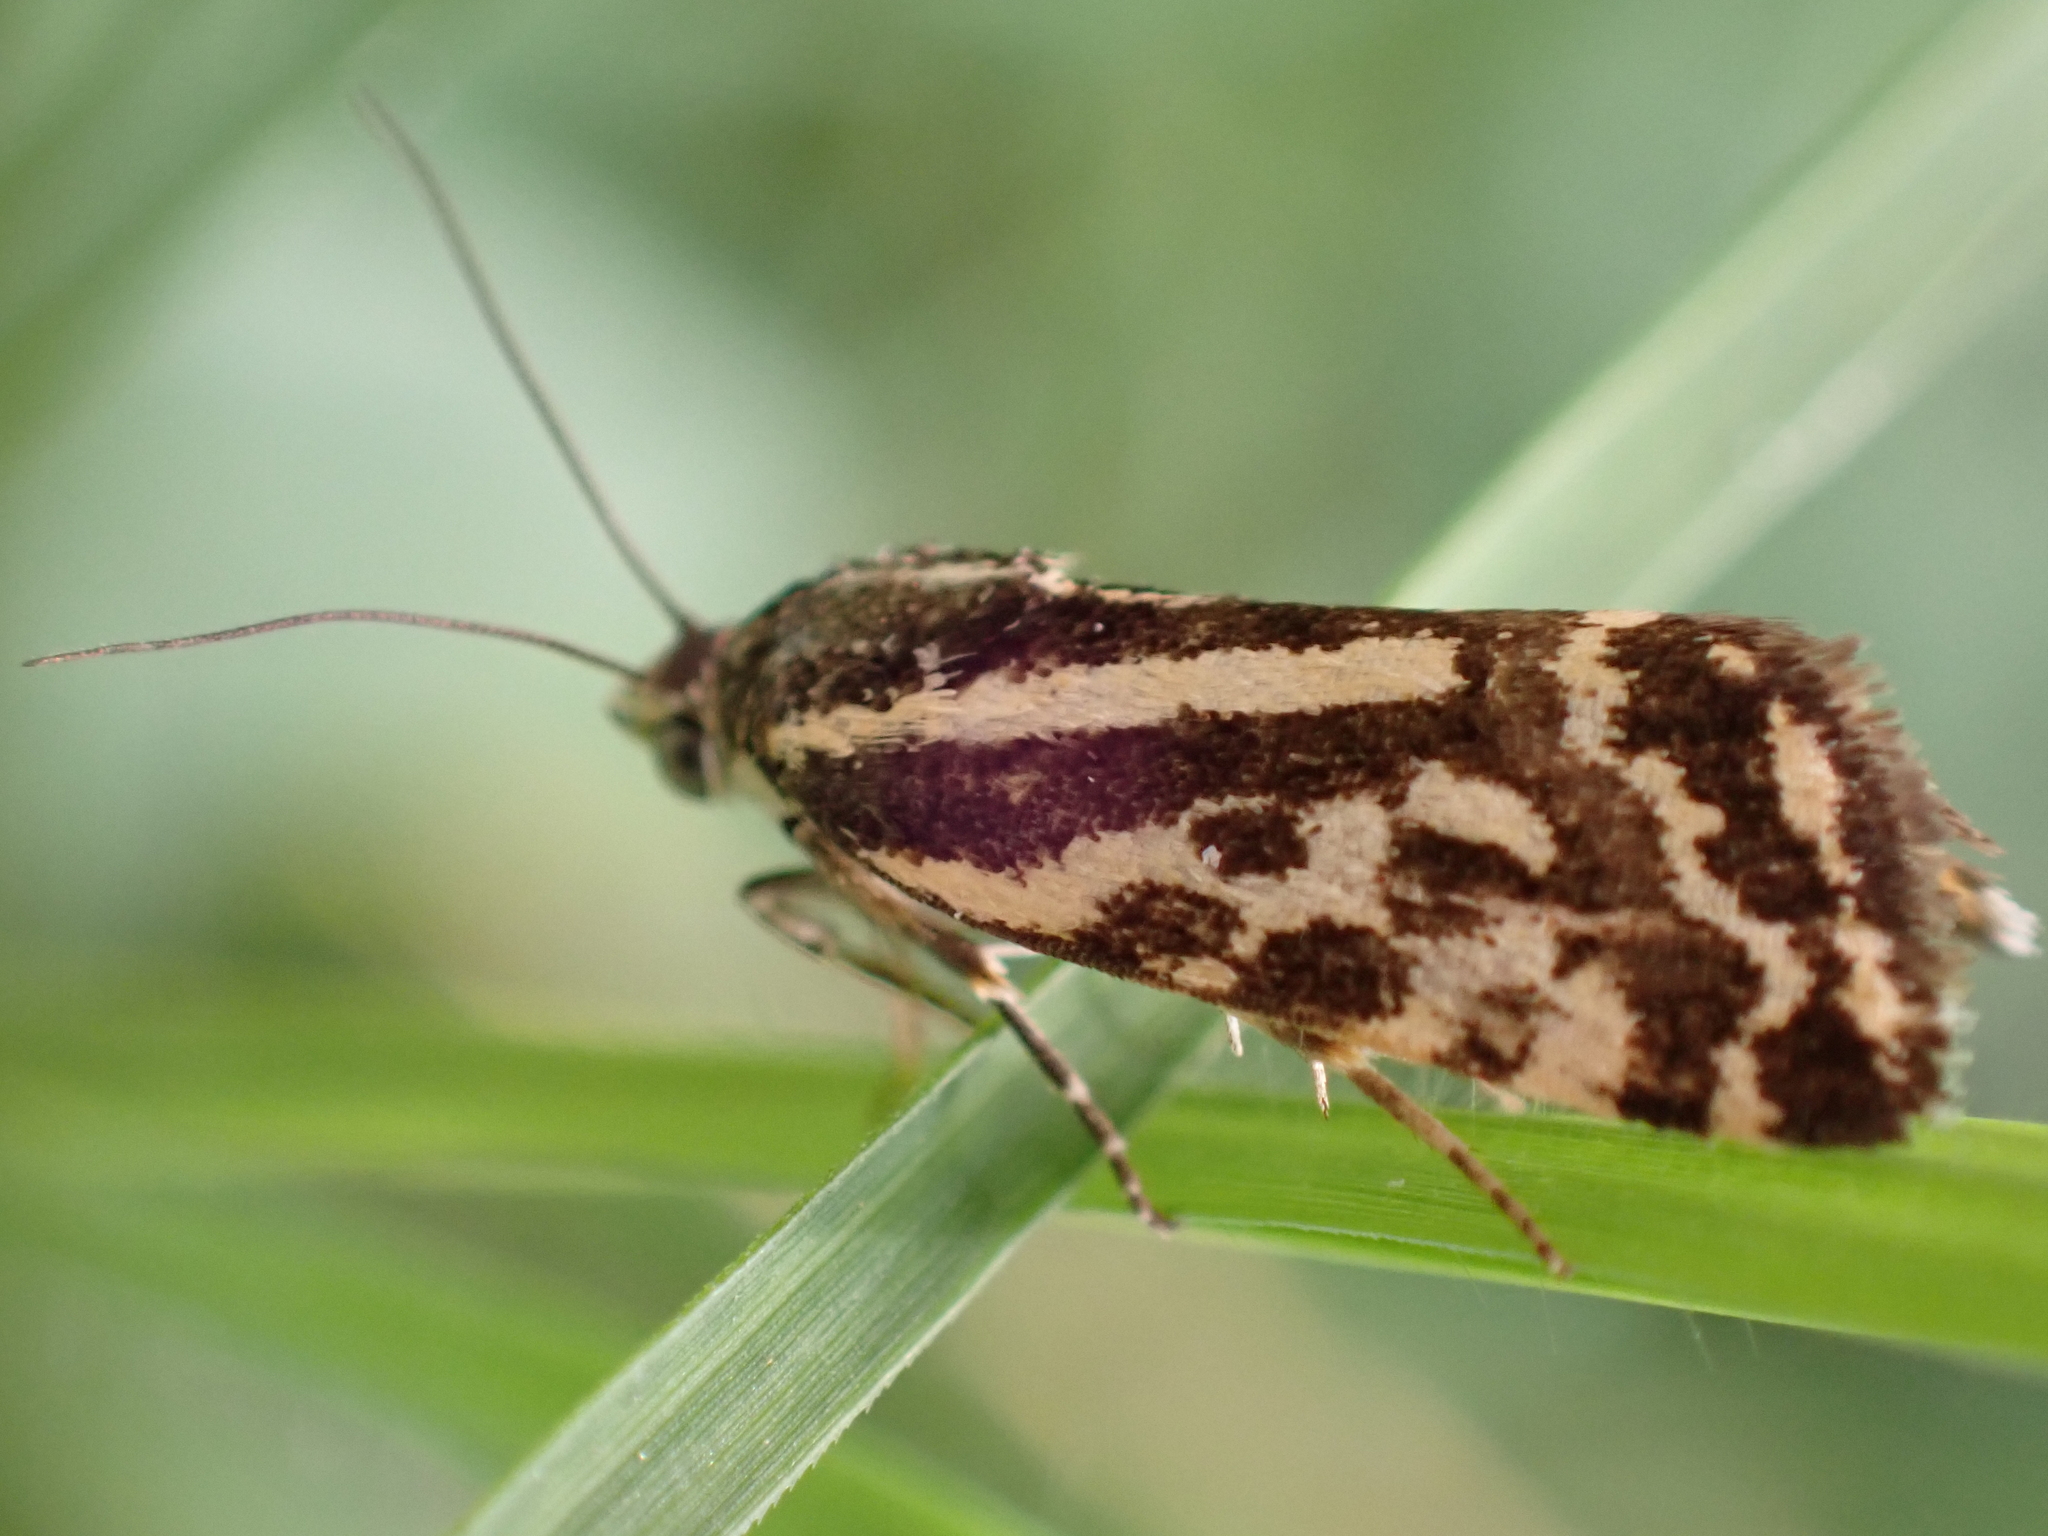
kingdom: Animalia
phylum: Arthropoda
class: Insecta
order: Lepidoptera
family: Noctuidae
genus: Acontia
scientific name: Acontia trabealis
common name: Spotted sulphur
